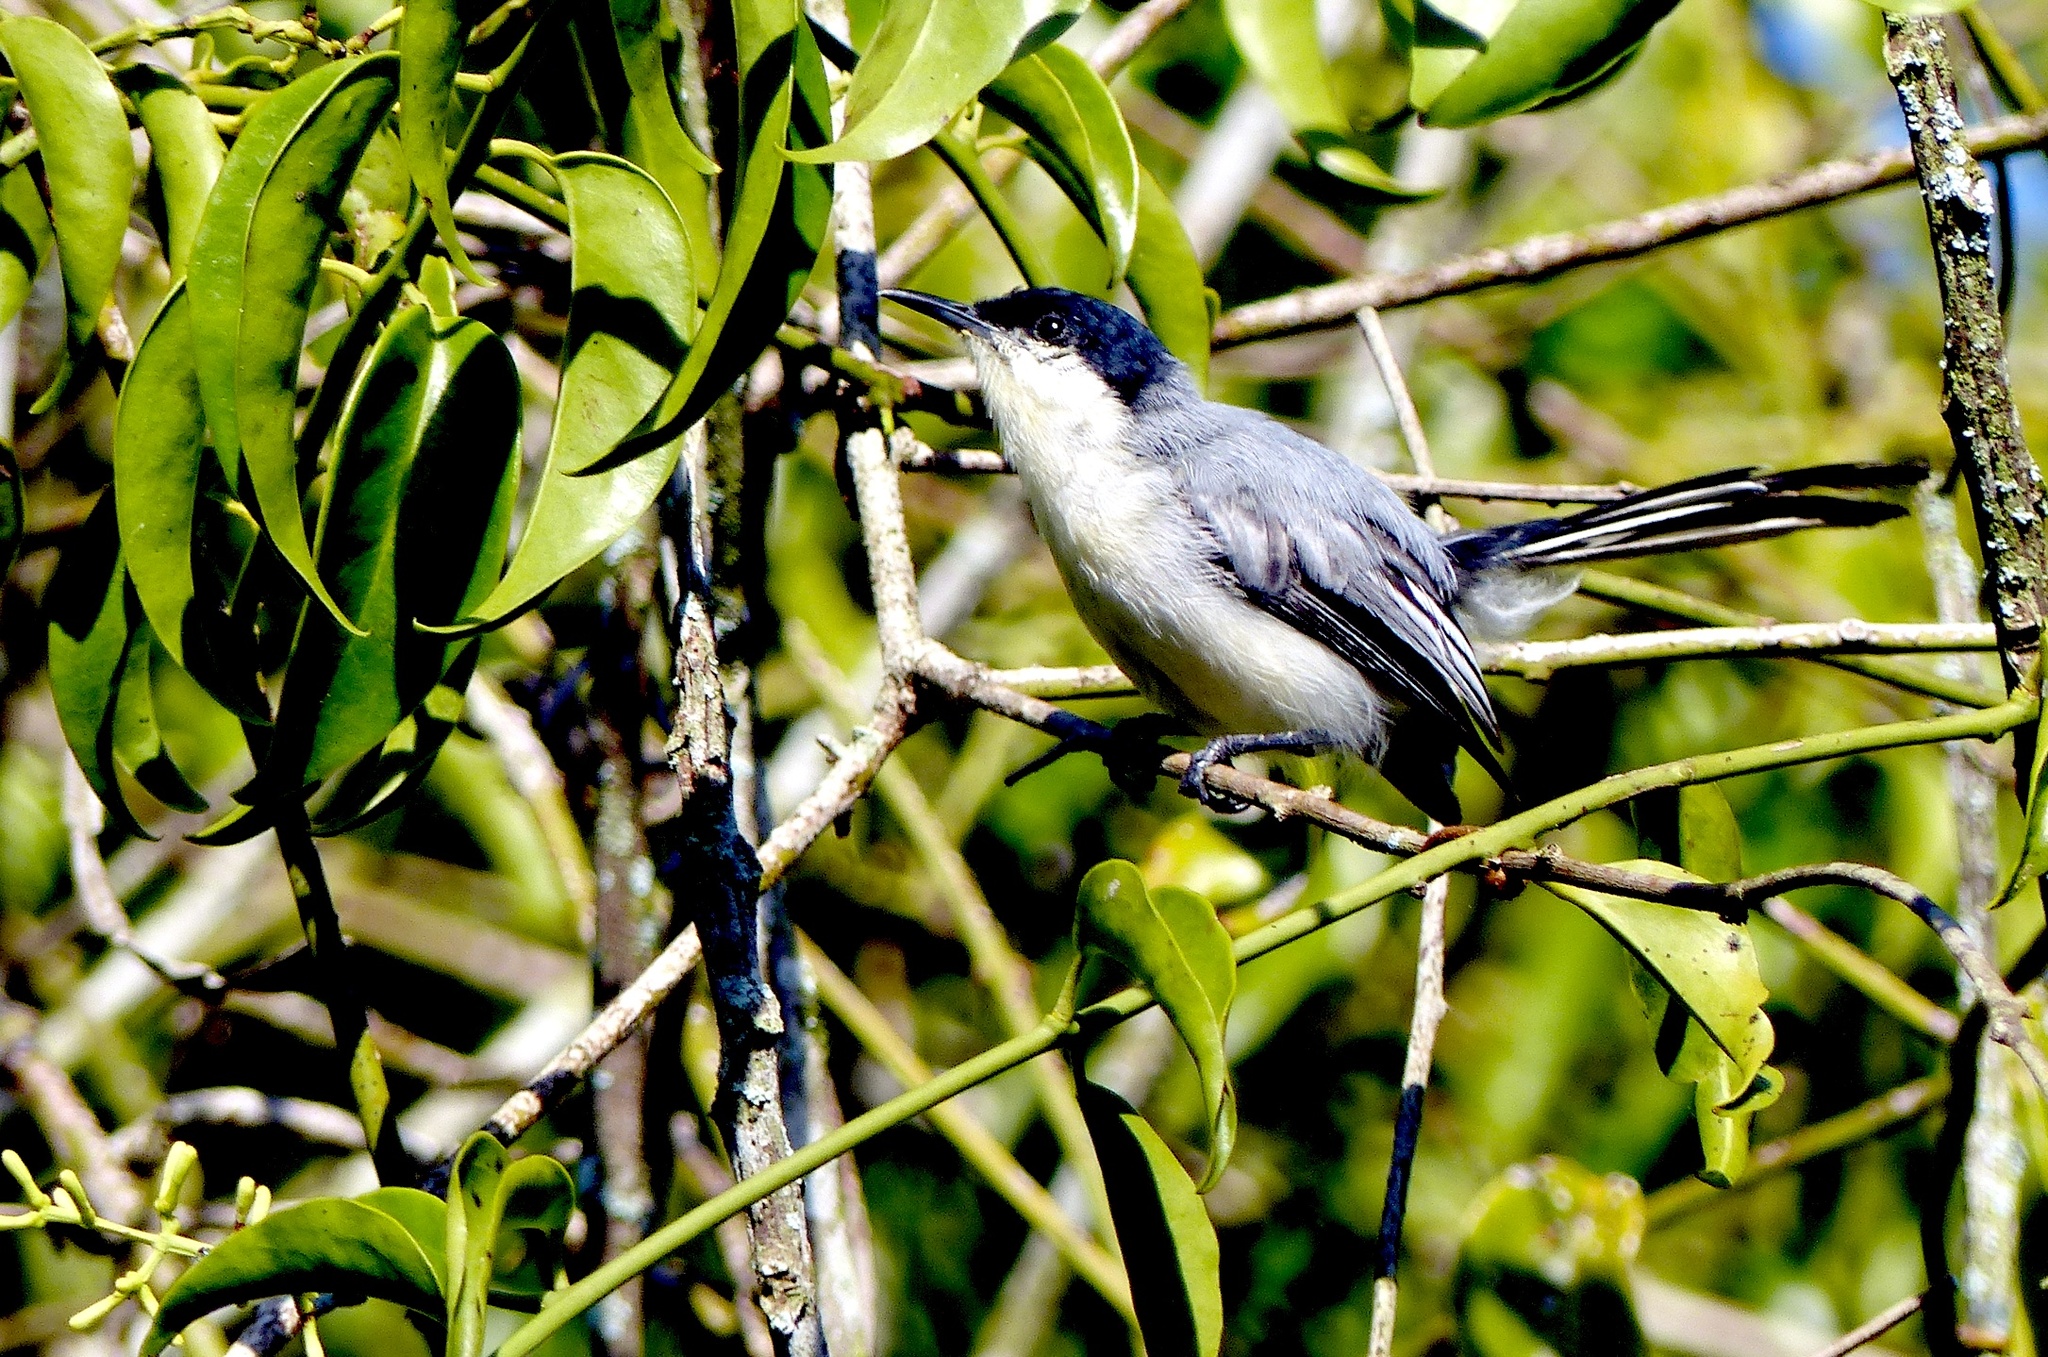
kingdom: Animalia
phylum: Chordata
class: Aves
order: Passeriformes
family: Polioptilidae
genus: Polioptila
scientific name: Polioptila plumbea
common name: Tropical gnatcatcher
